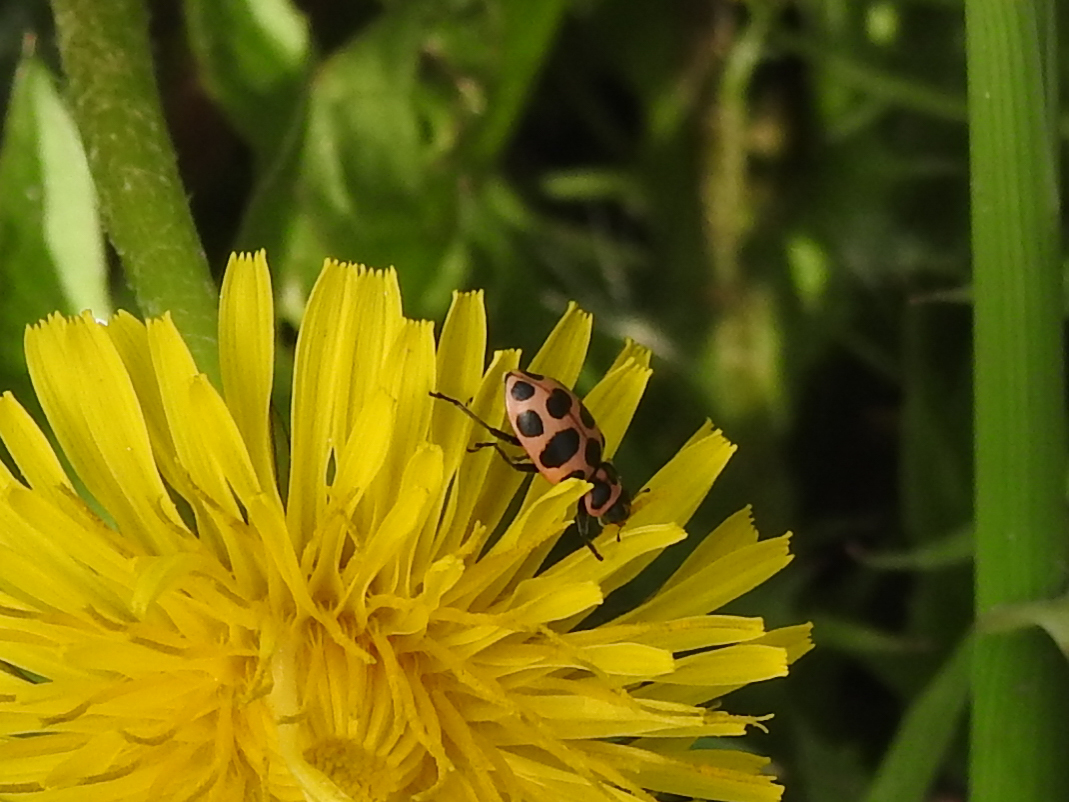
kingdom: Animalia
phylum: Arthropoda
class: Insecta
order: Coleoptera
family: Coccinellidae
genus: Coleomegilla
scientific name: Coleomegilla maculata
